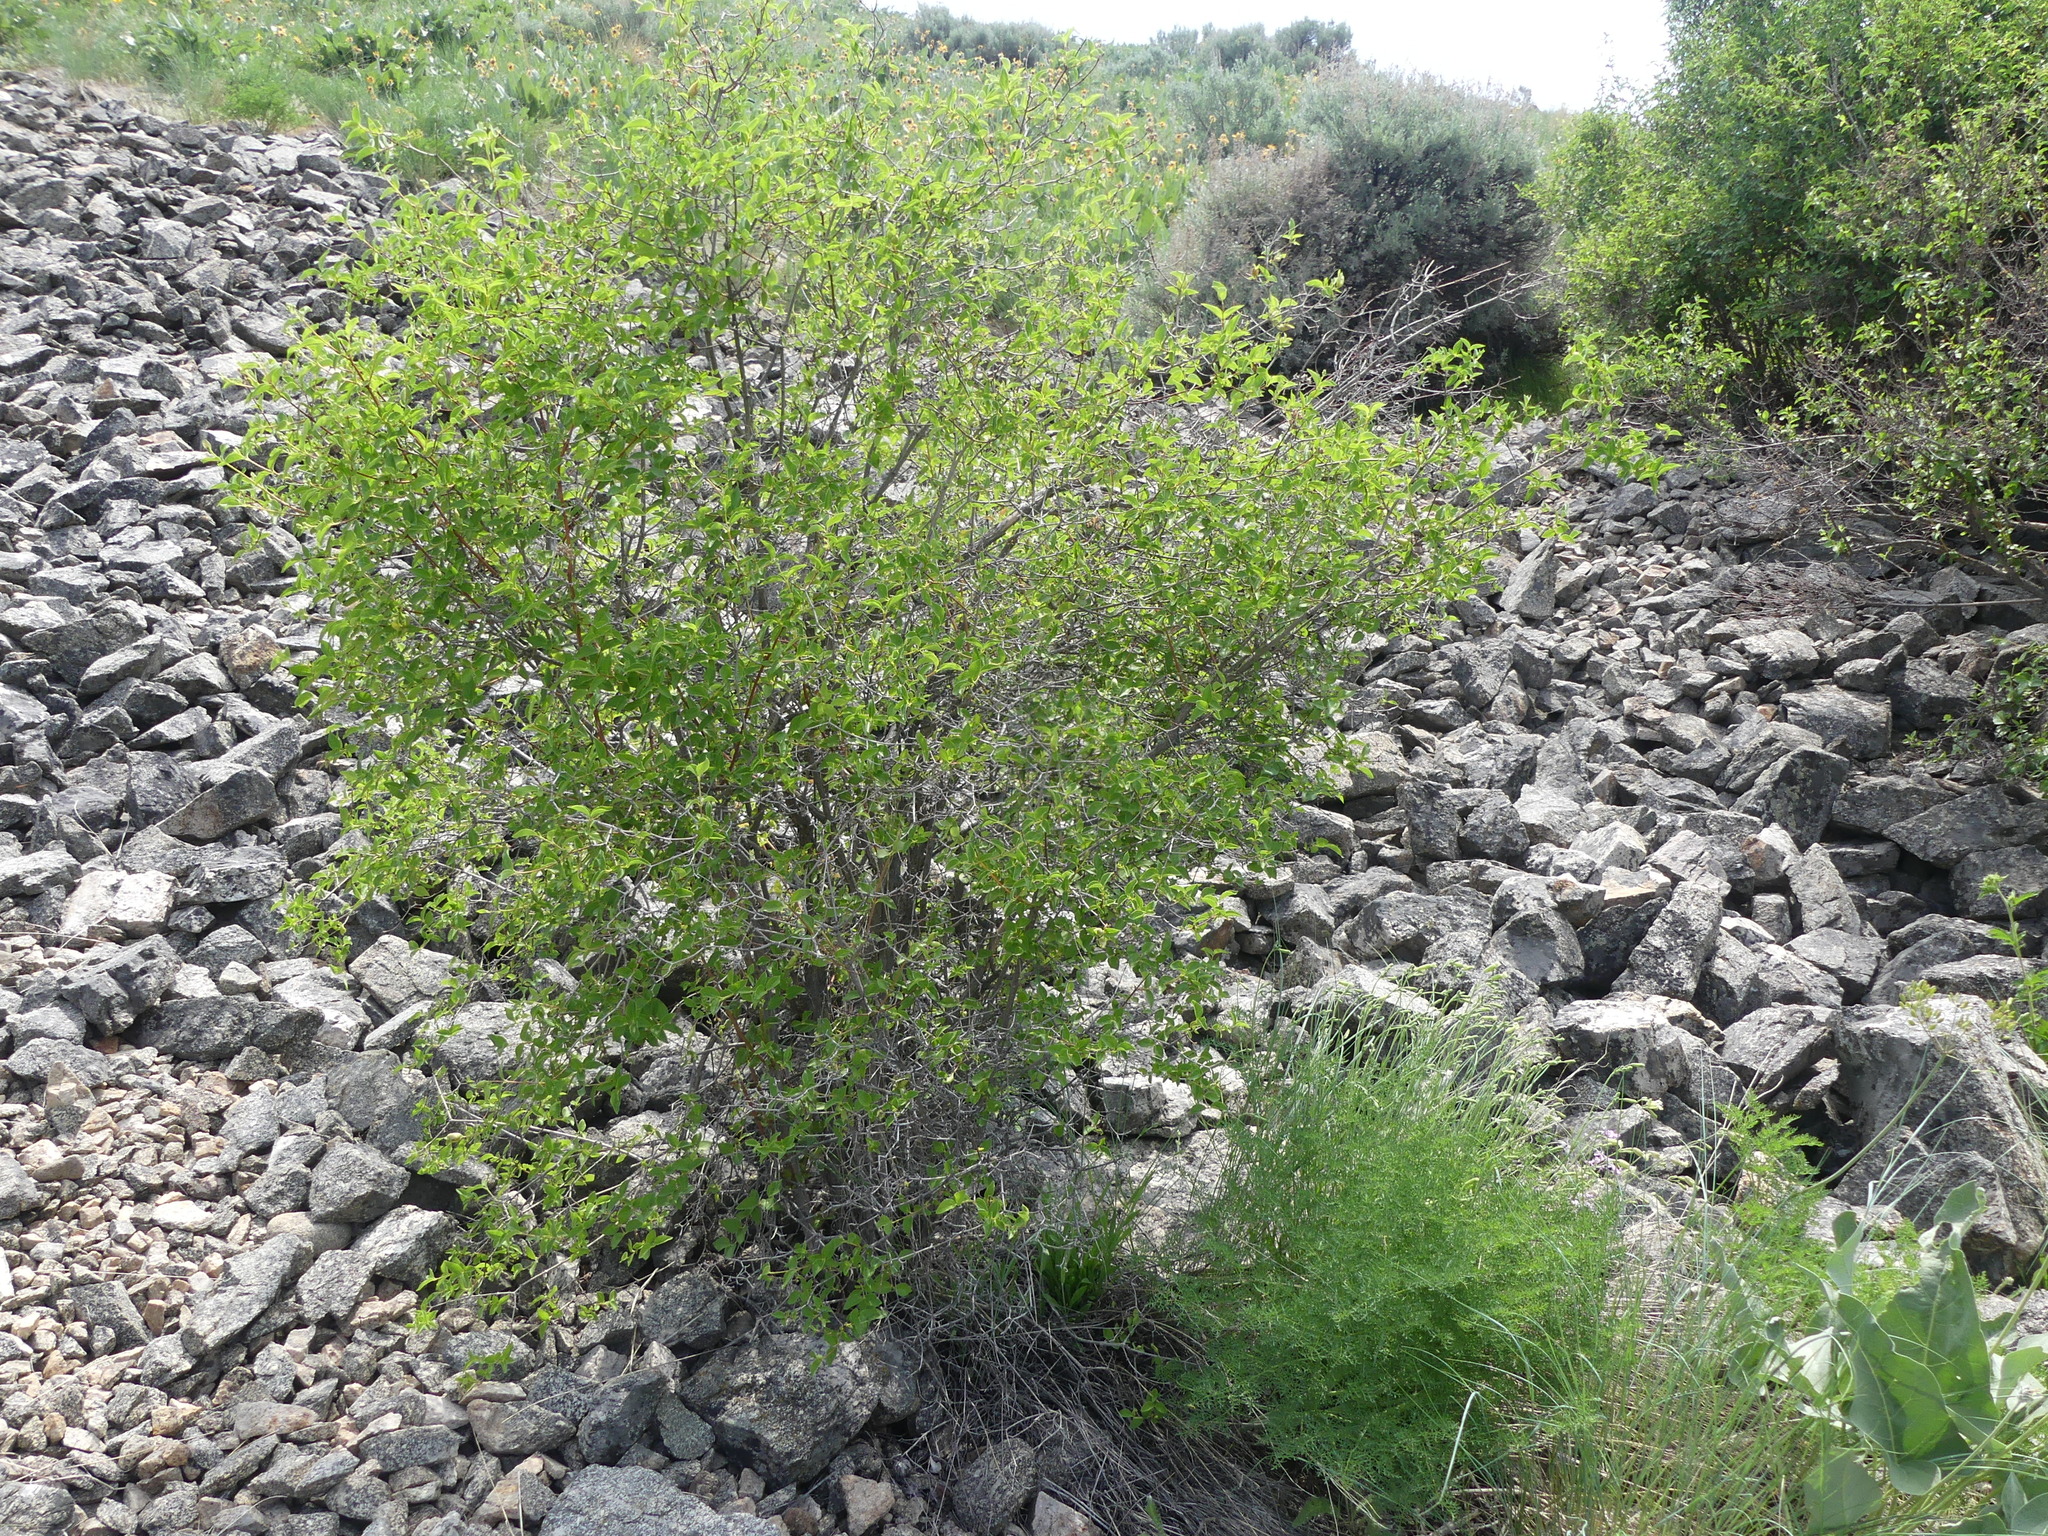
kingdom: Plantae
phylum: Tracheophyta
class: Magnoliopsida
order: Cornales
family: Hydrangeaceae
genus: Philadelphus
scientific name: Philadelphus lewisii
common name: Lewis's mock orange
